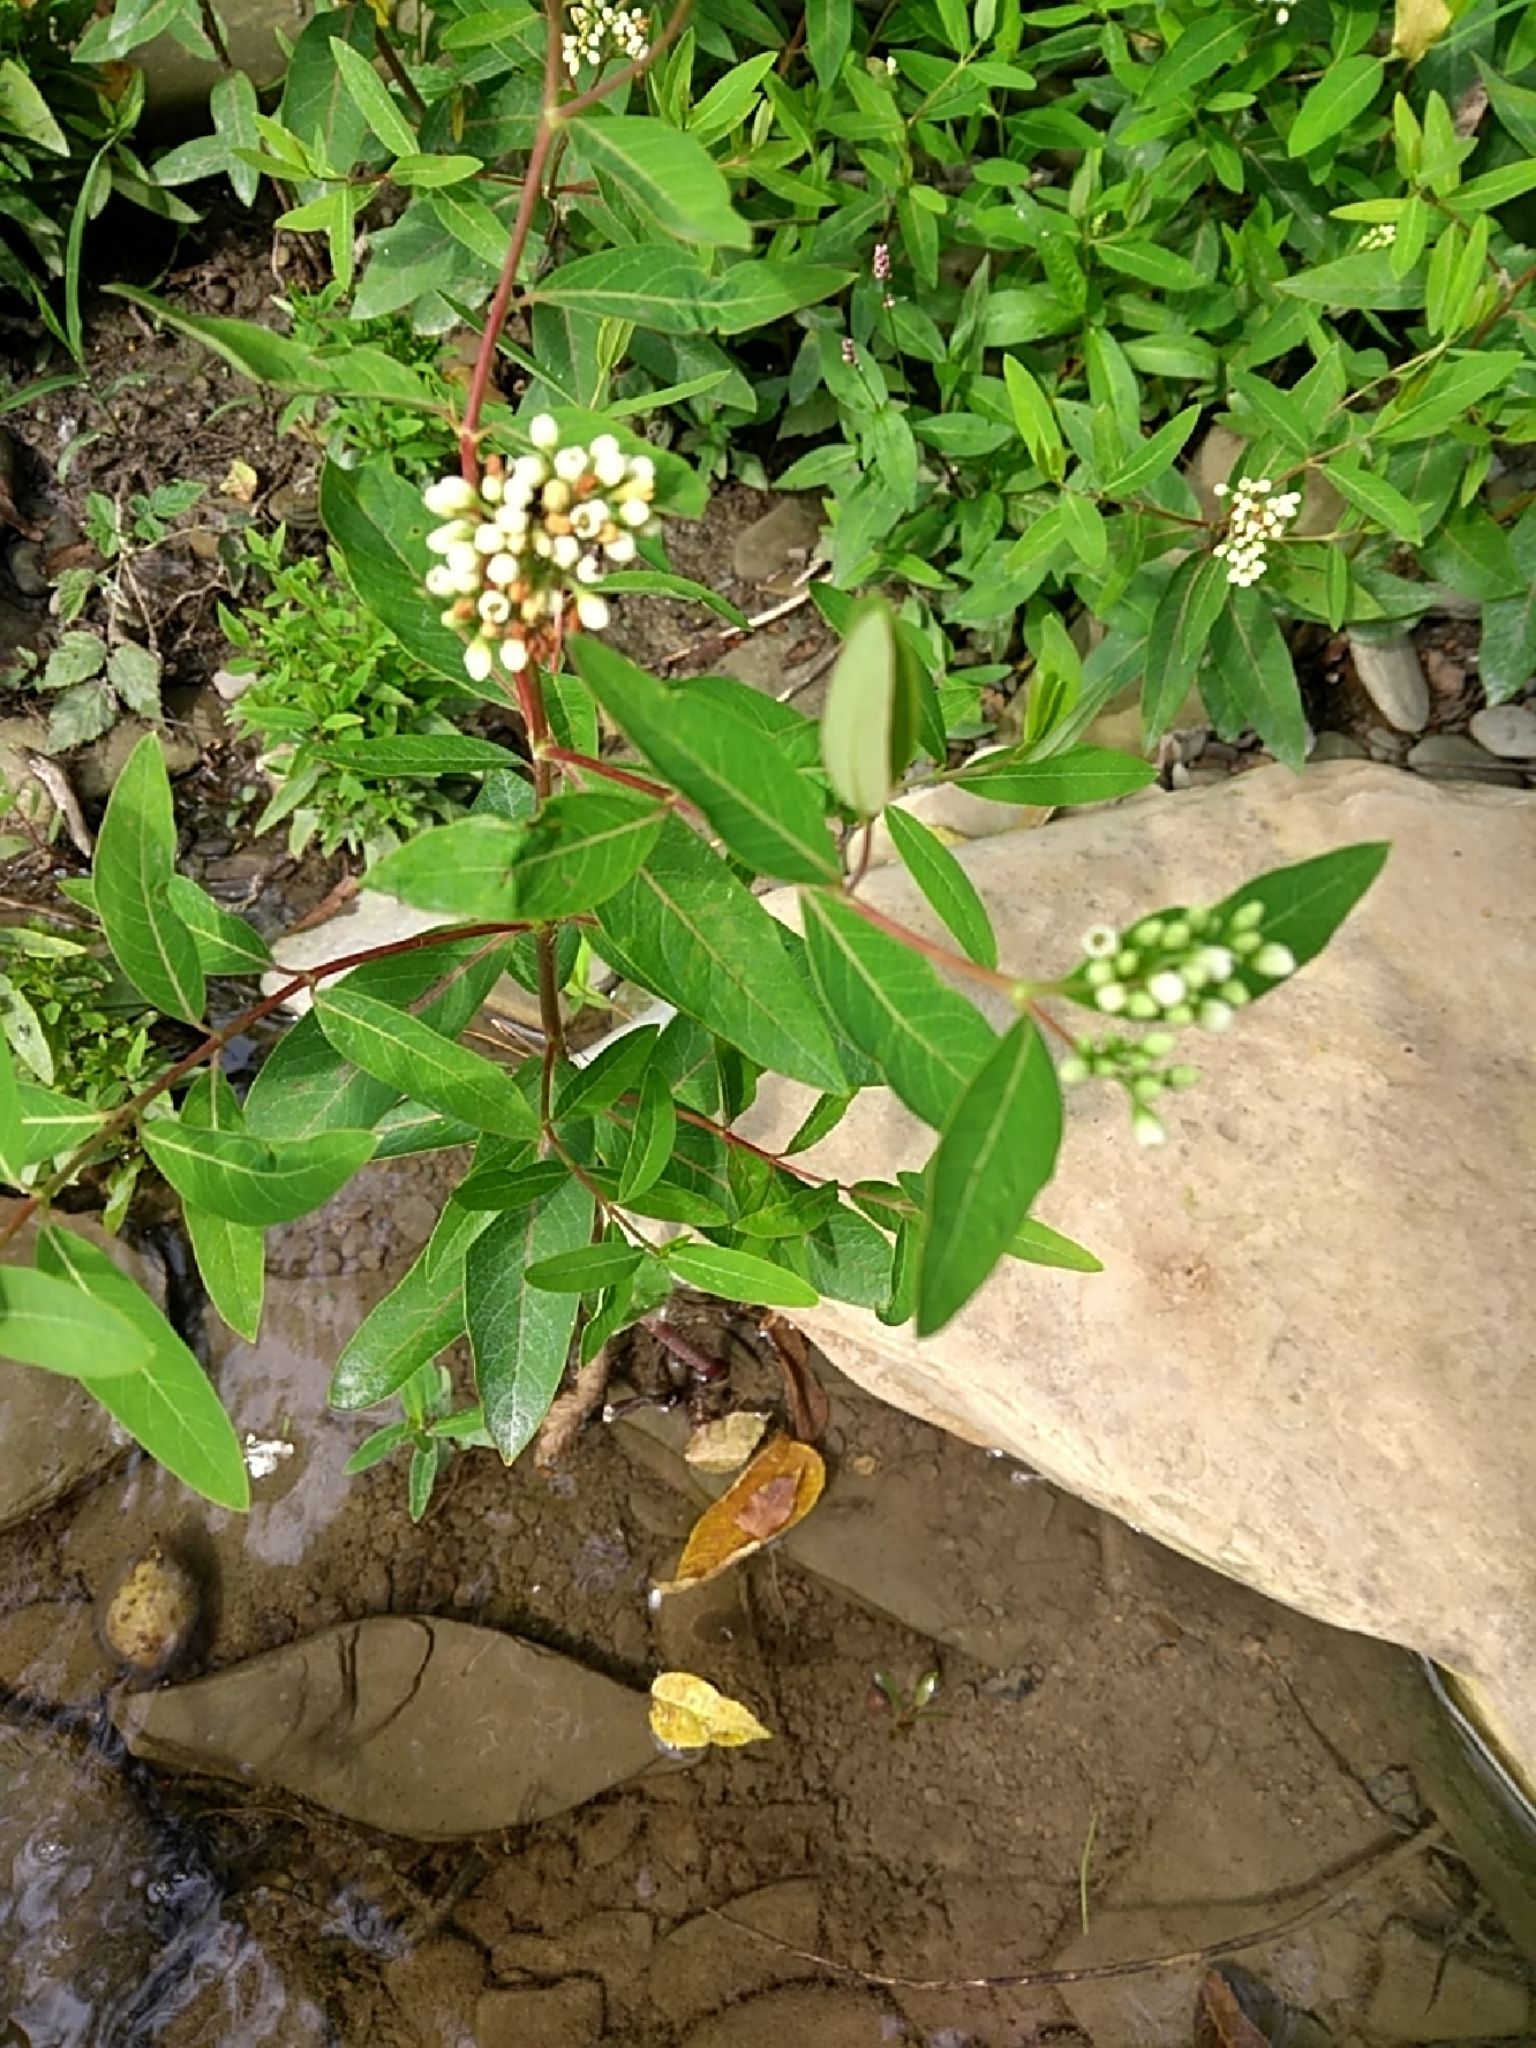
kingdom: Plantae
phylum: Tracheophyta
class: Magnoliopsida
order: Gentianales
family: Apocynaceae
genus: Apocynum
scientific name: Apocynum cannabinum
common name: Hemp dogbane
